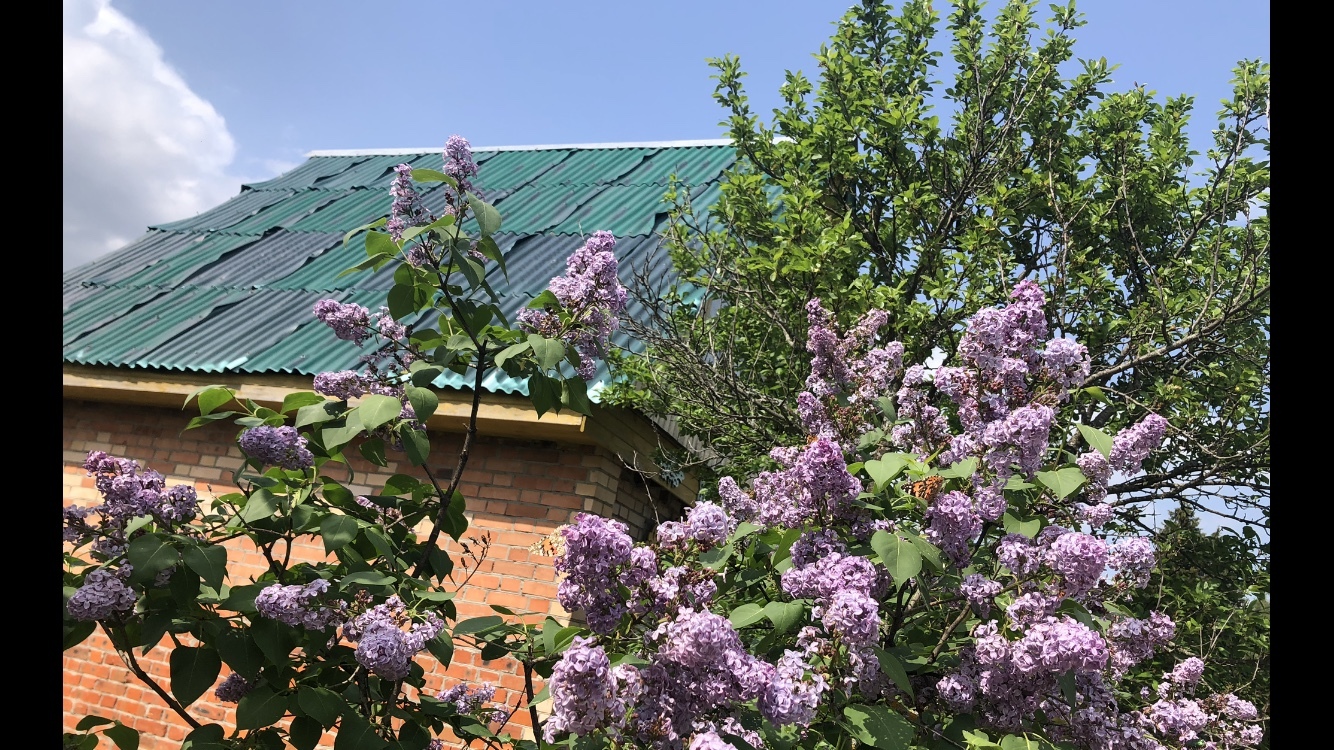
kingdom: Animalia
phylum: Arthropoda
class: Insecta
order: Lepidoptera
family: Nymphalidae
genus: Vanessa
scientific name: Vanessa cardui
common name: Painted lady
